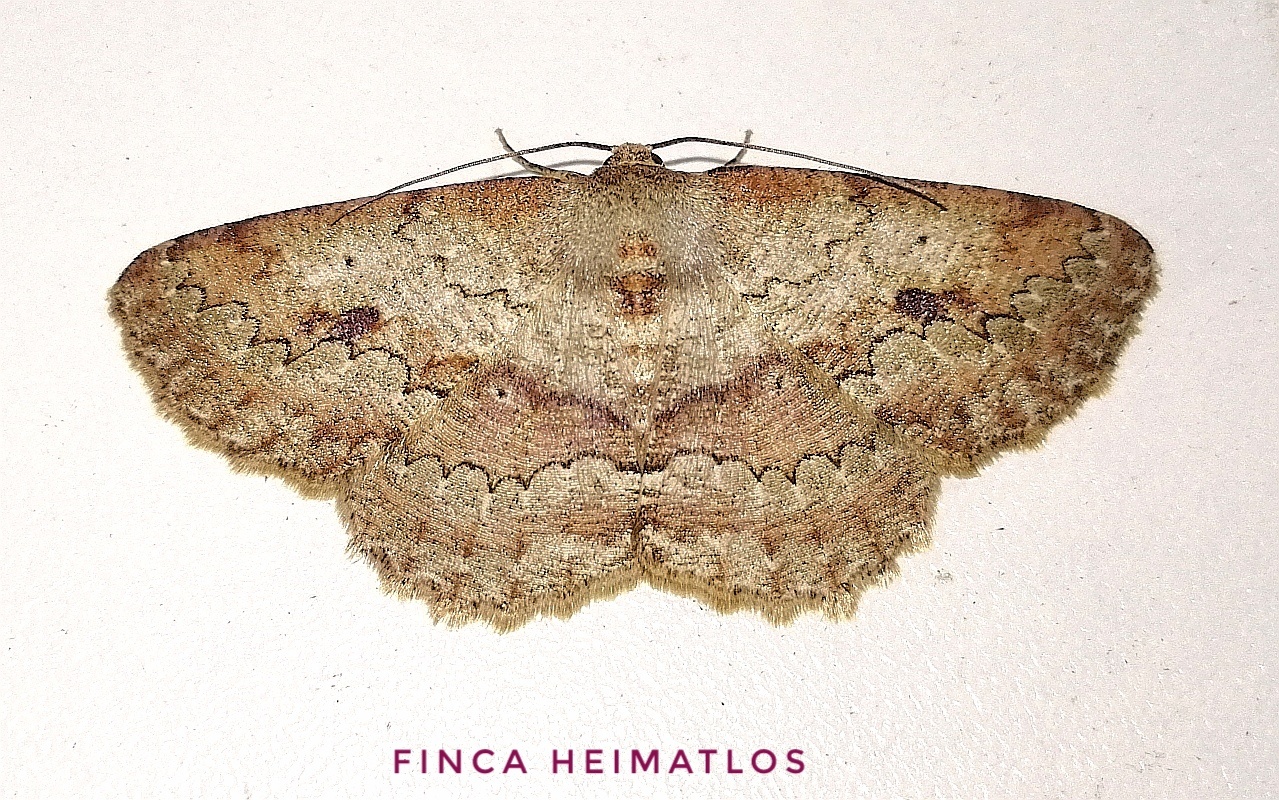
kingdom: Animalia
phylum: Arthropoda
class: Insecta
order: Lepidoptera
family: Geometridae
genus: Sabulodes
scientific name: Sabulodes boarmidaria
